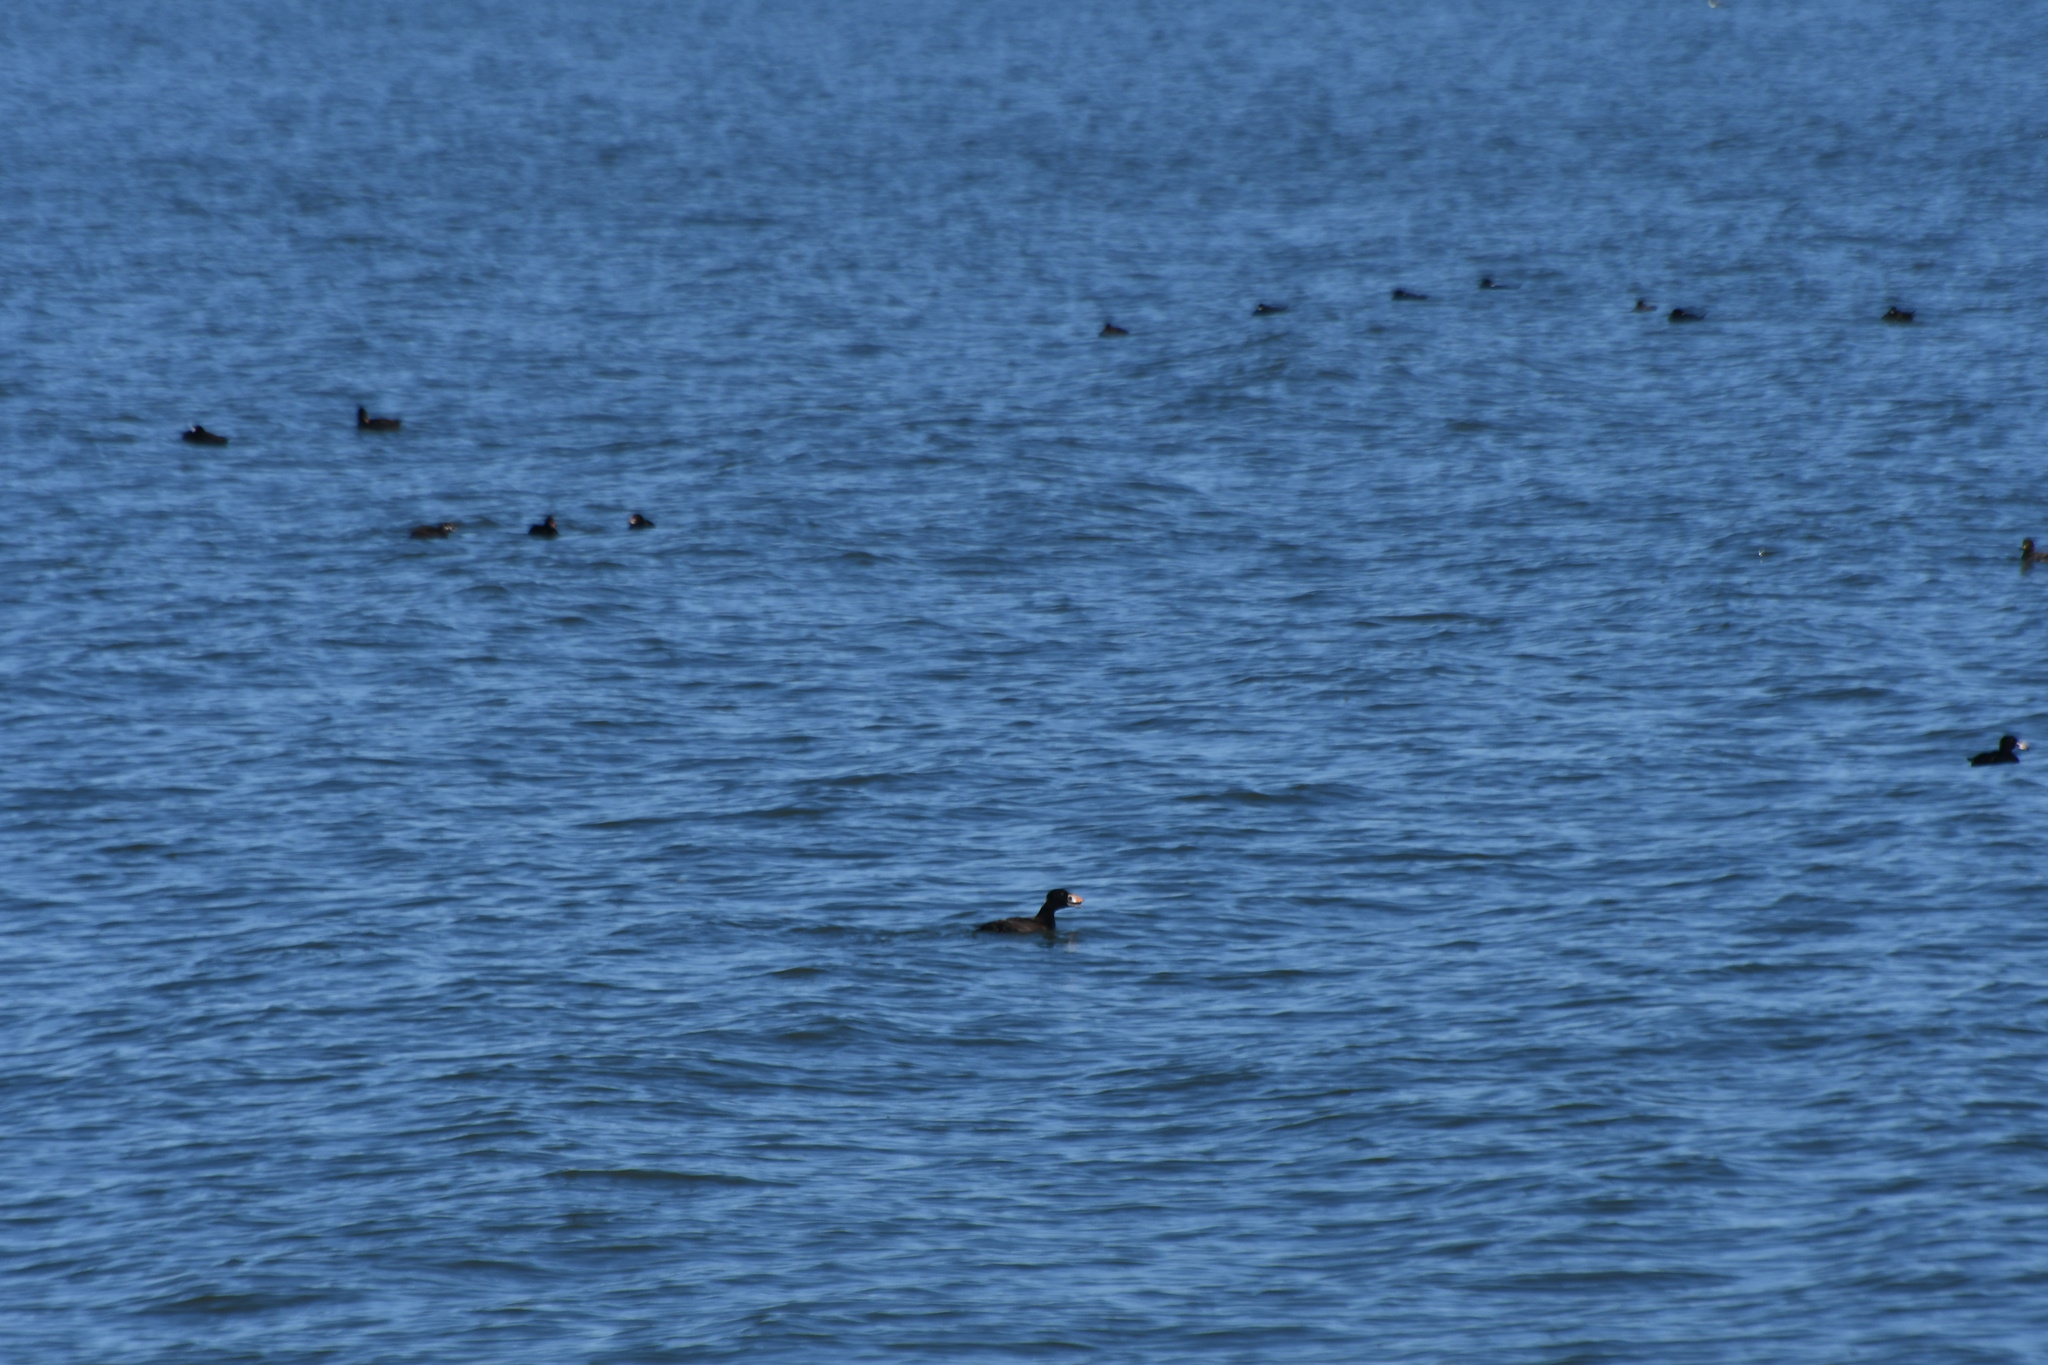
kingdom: Animalia
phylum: Chordata
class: Aves
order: Anseriformes
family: Anatidae
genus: Melanitta
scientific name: Melanitta perspicillata
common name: Surf scoter
